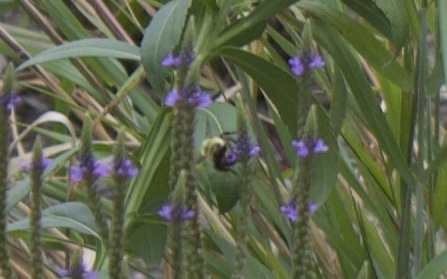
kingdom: Animalia
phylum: Arthropoda
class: Insecta
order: Hymenoptera
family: Apidae
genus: Bombus
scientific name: Bombus
